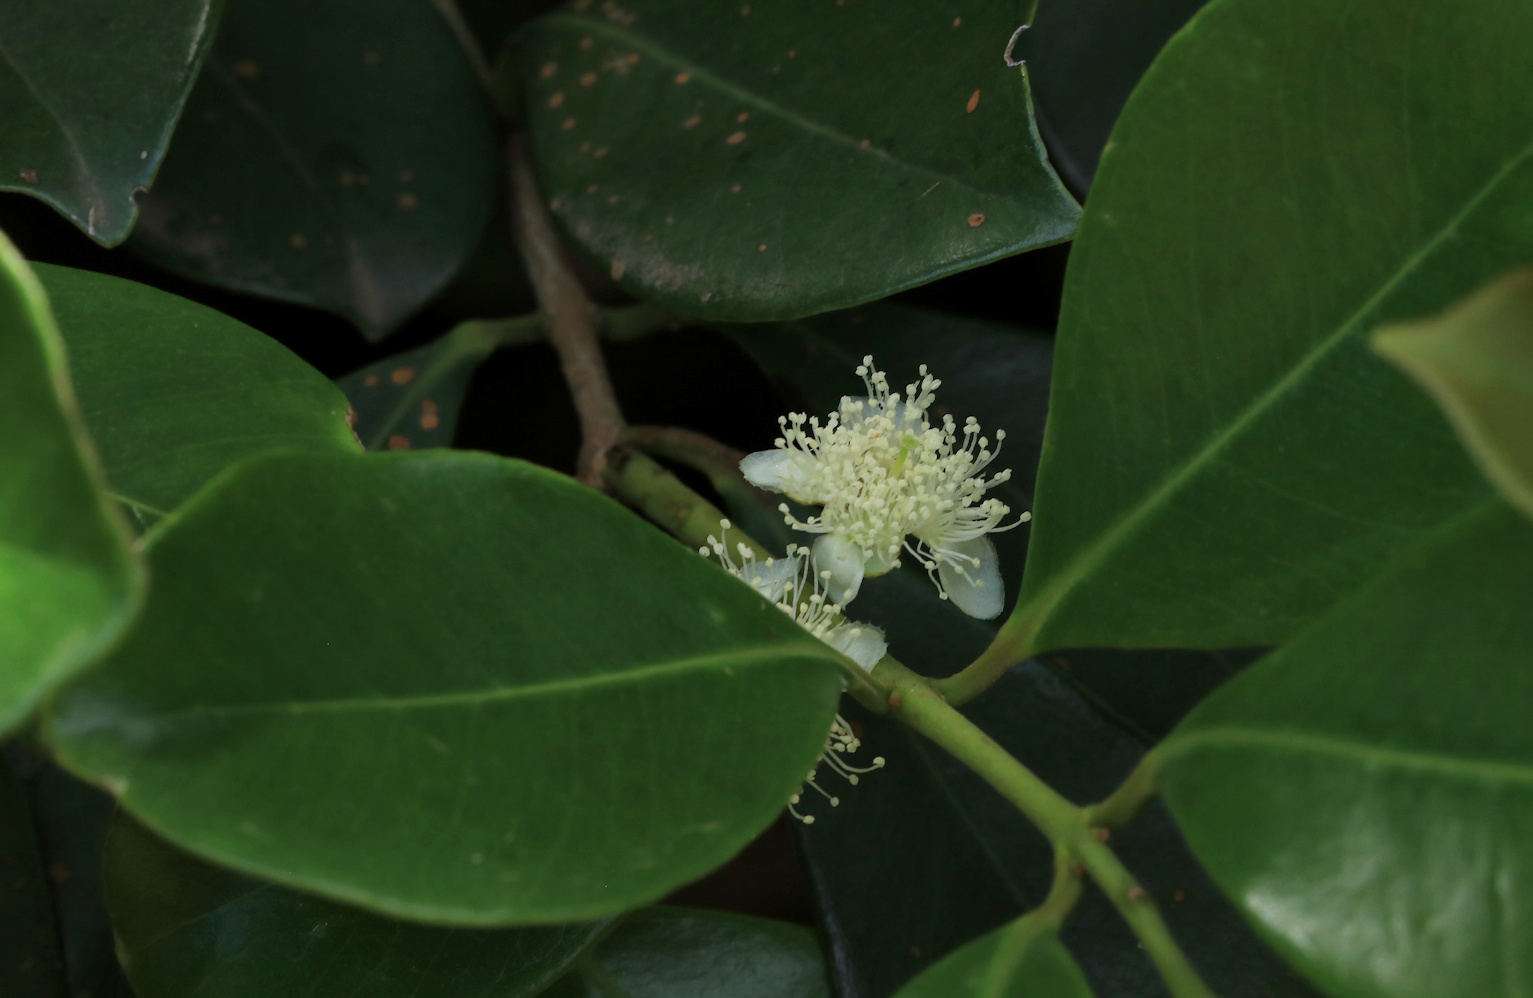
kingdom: Plantae
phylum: Tracheophyta
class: Magnoliopsida
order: Myrtales
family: Myrtaceae
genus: Psidium
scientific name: Psidium cattleianum
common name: Strawberry guava
